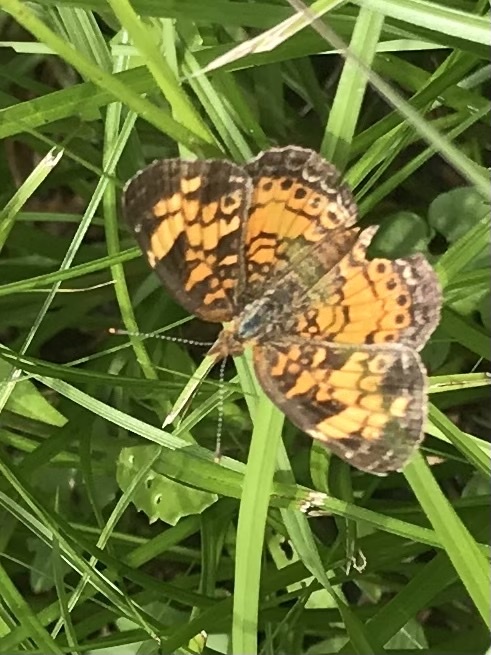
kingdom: Animalia
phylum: Arthropoda
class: Insecta
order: Lepidoptera
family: Nymphalidae
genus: Phyciodes
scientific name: Phyciodes tharos
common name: Pearl crescent
